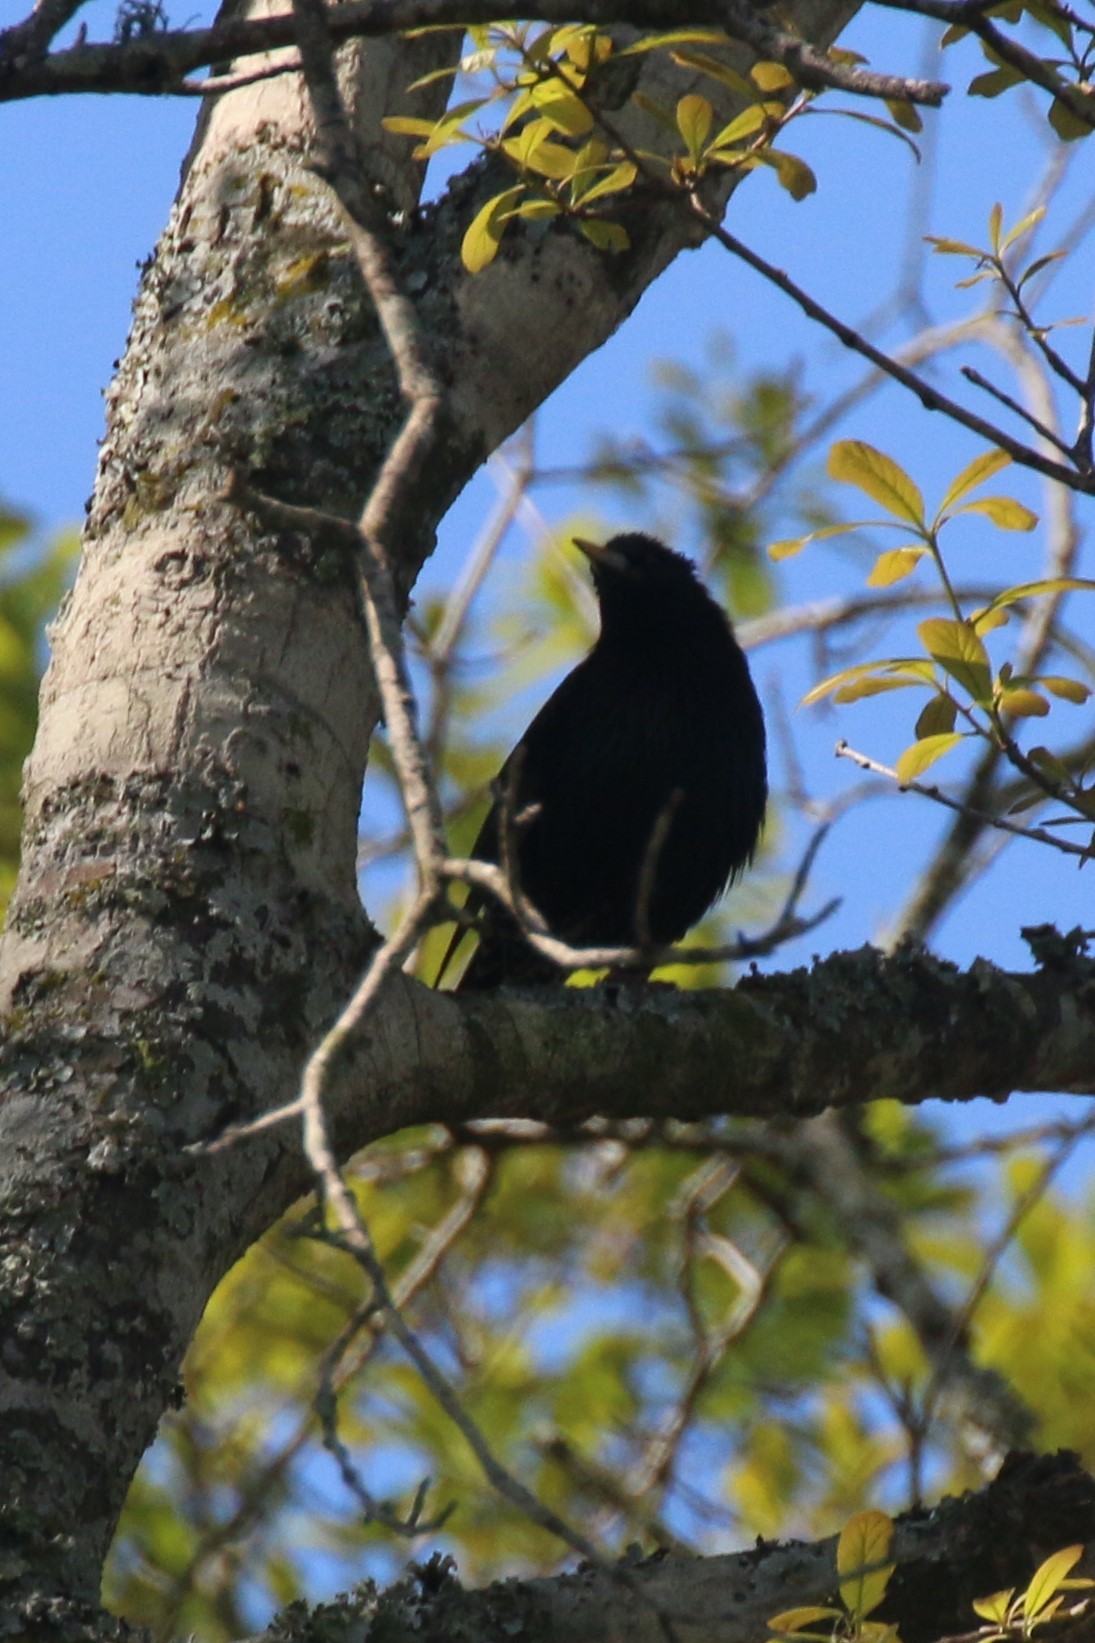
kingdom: Animalia
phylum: Chordata
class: Aves
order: Passeriformes
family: Sturnidae
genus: Sturnus
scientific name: Sturnus vulgaris
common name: Common starling
